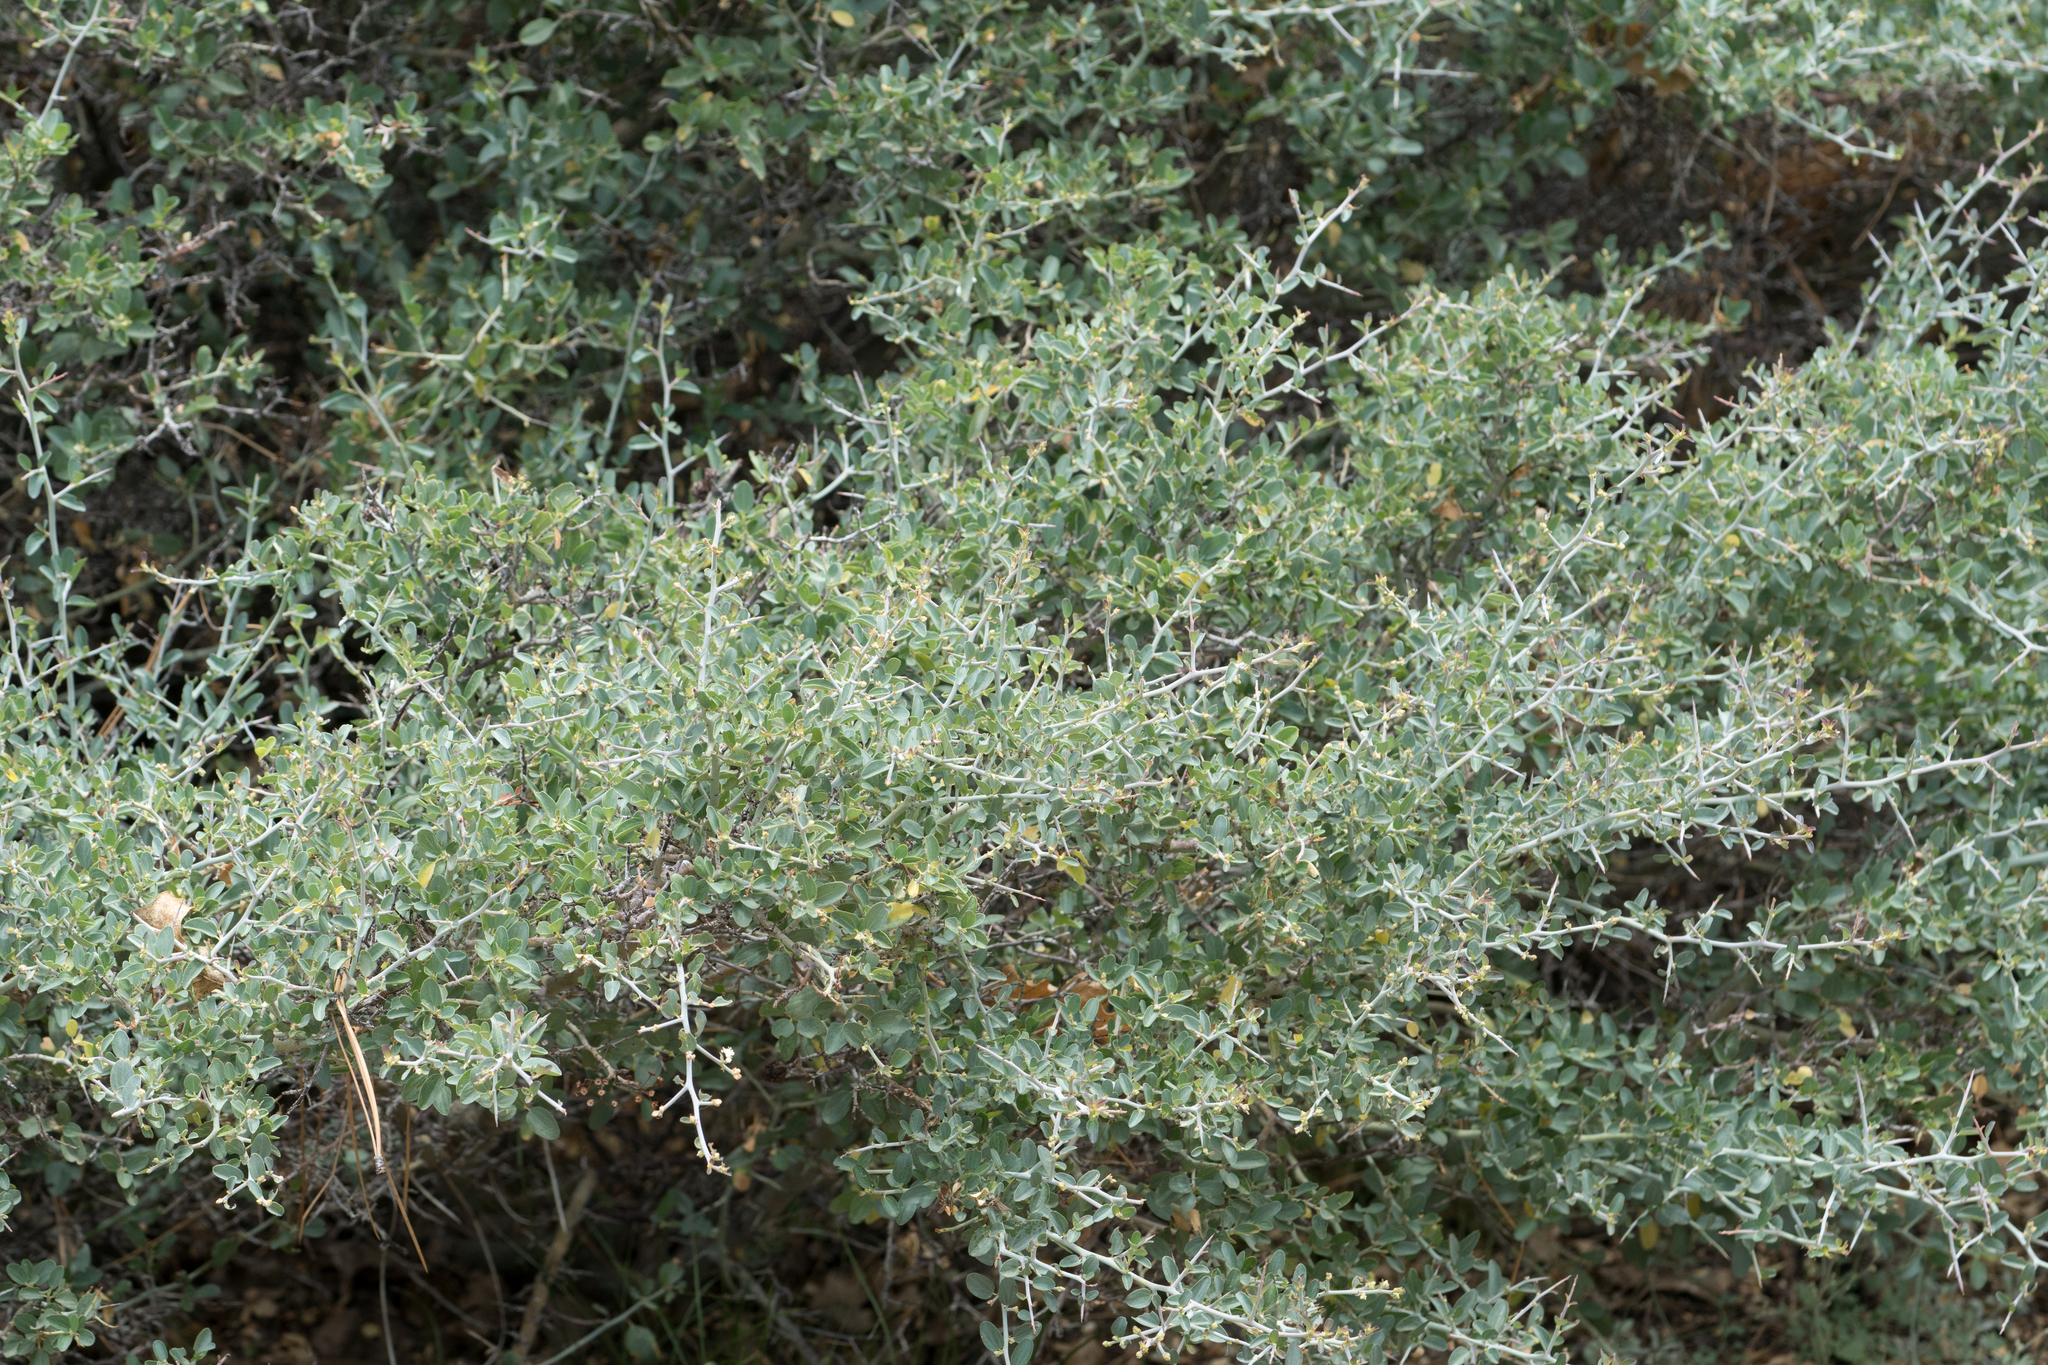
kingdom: Plantae
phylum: Tracheophyta
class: Magnoliopsida
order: Rosales
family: Rhamnaceae
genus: Ceanothus
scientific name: Ceanothus cordulatus
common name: Mountain whitethorn
